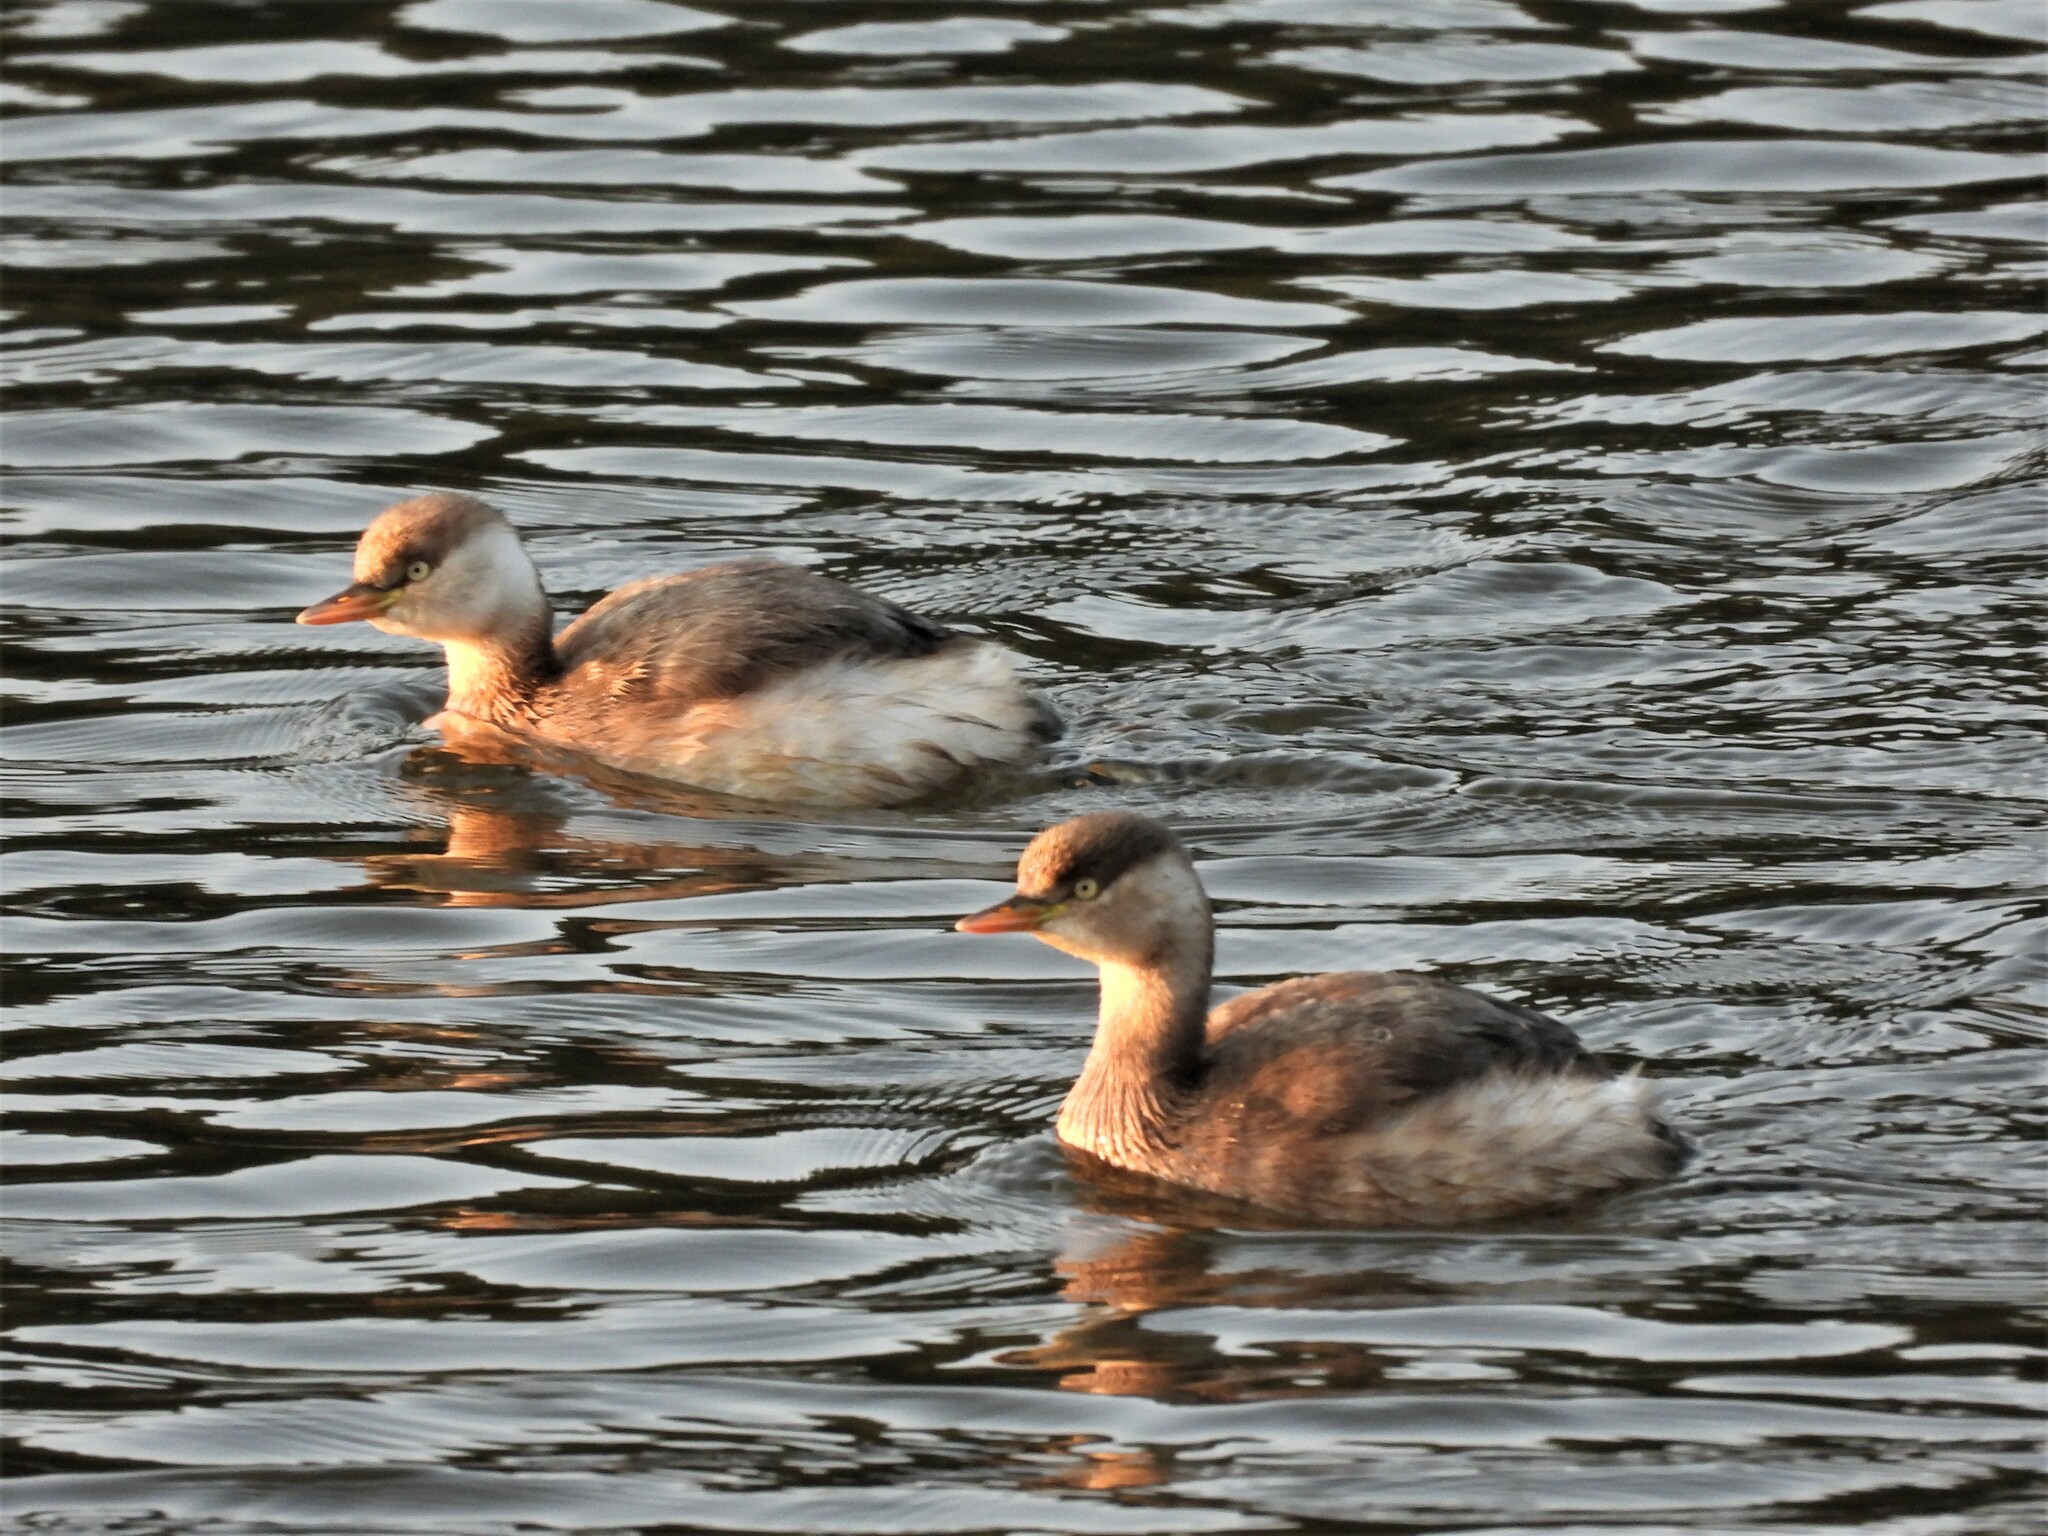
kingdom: Animalia
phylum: Chordata
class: Aves
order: Podicipediformes
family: Podicipedidae
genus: Tachybaptus
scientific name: Tachybaptus ruficollis
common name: Little grebe
